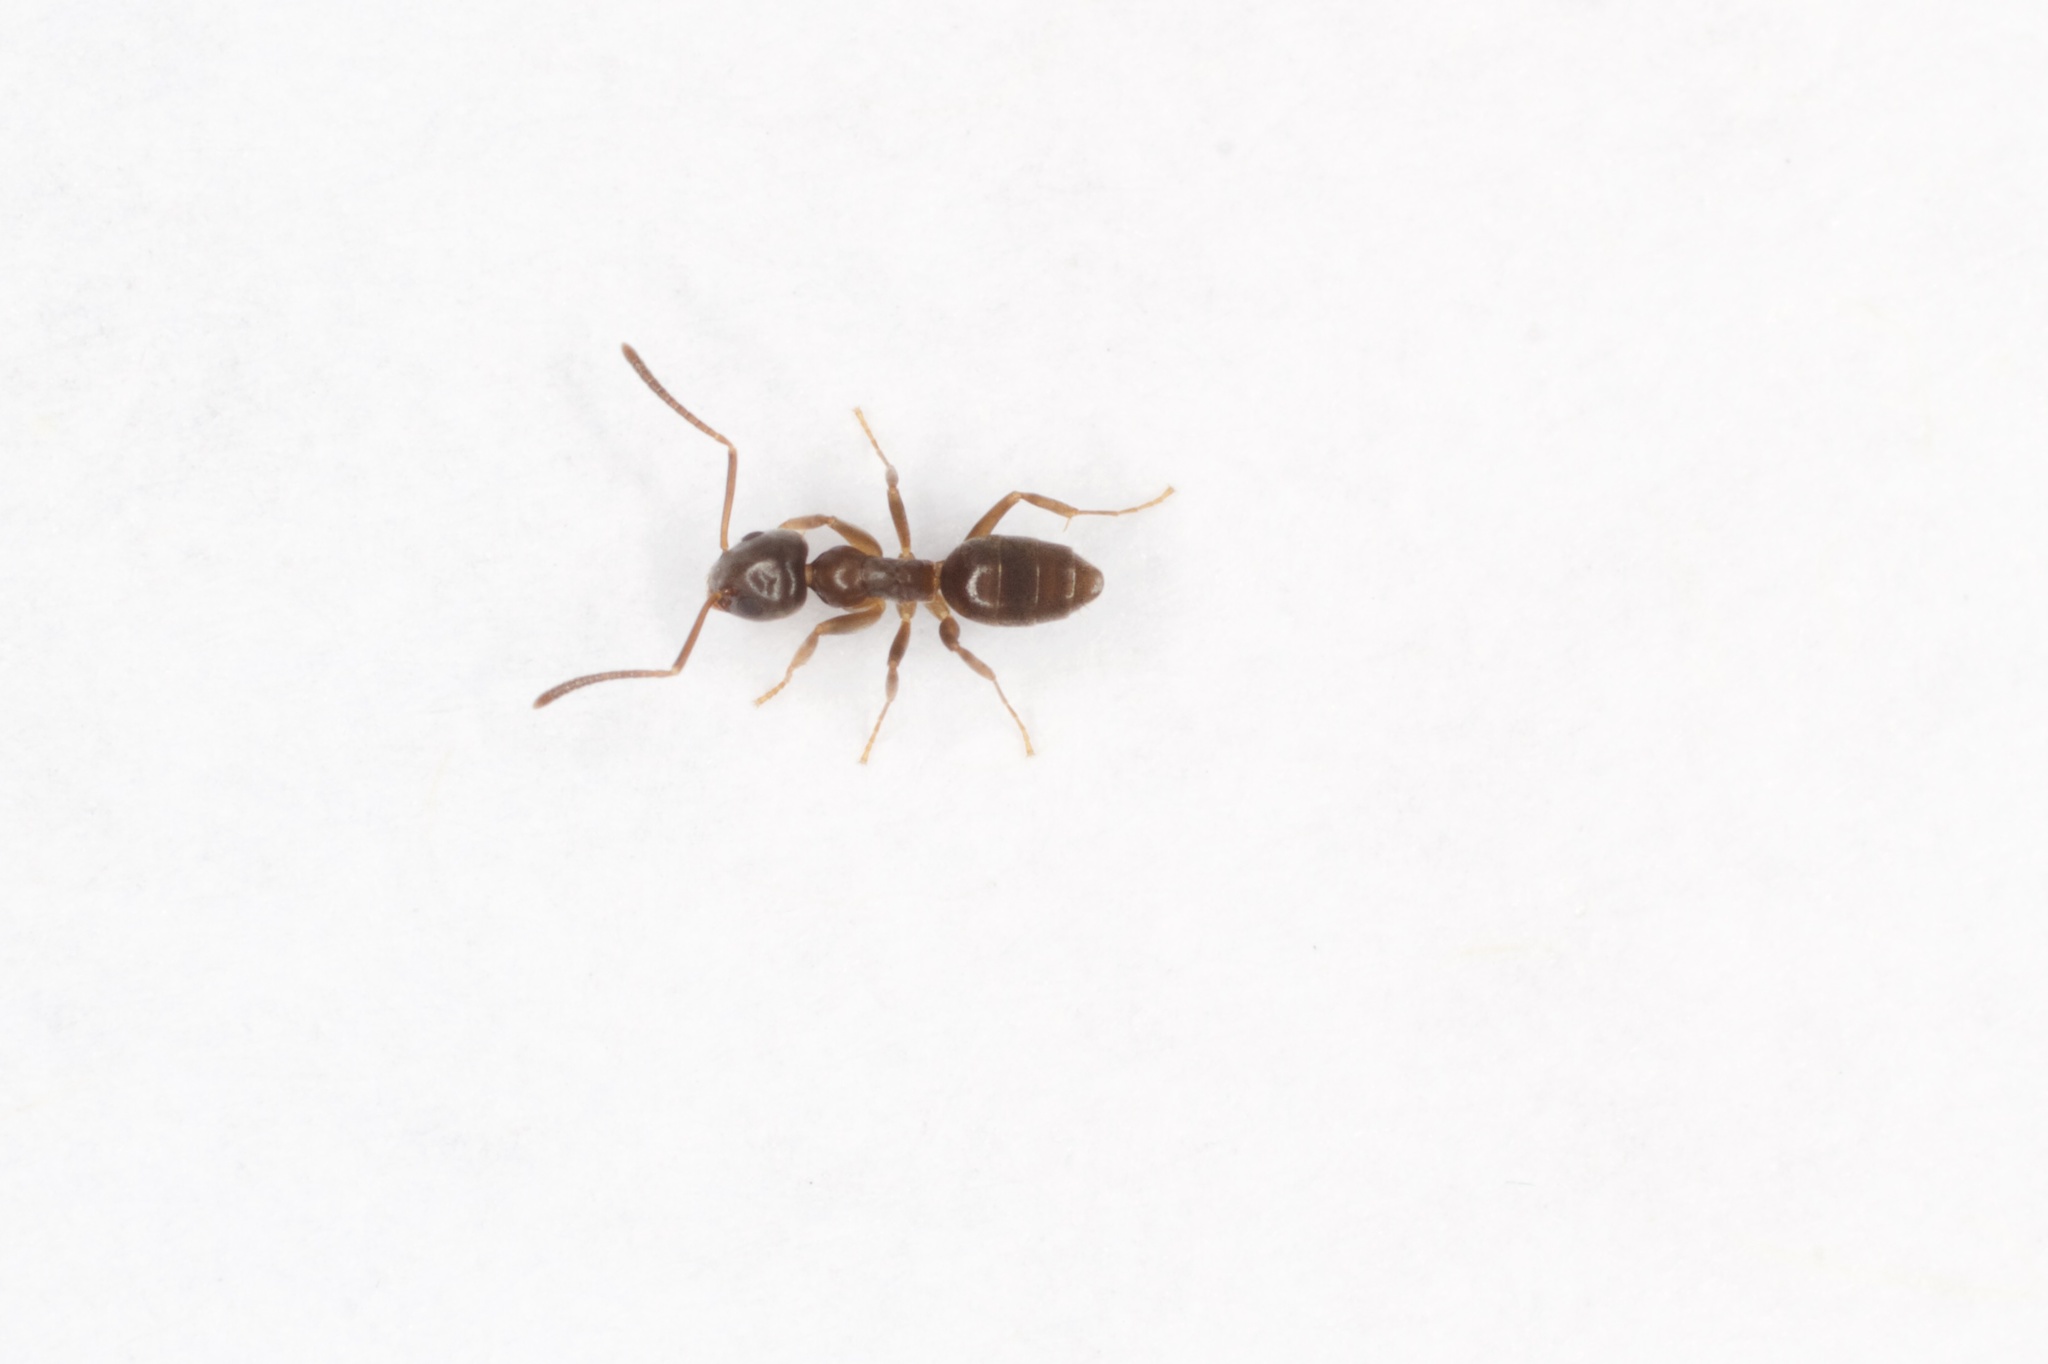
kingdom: Animalia
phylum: Arthropoda
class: Insecta
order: Hymenoptera
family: Formicidae
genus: Tapinoma
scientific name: Tapinoma sessile
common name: Odorous house ant
